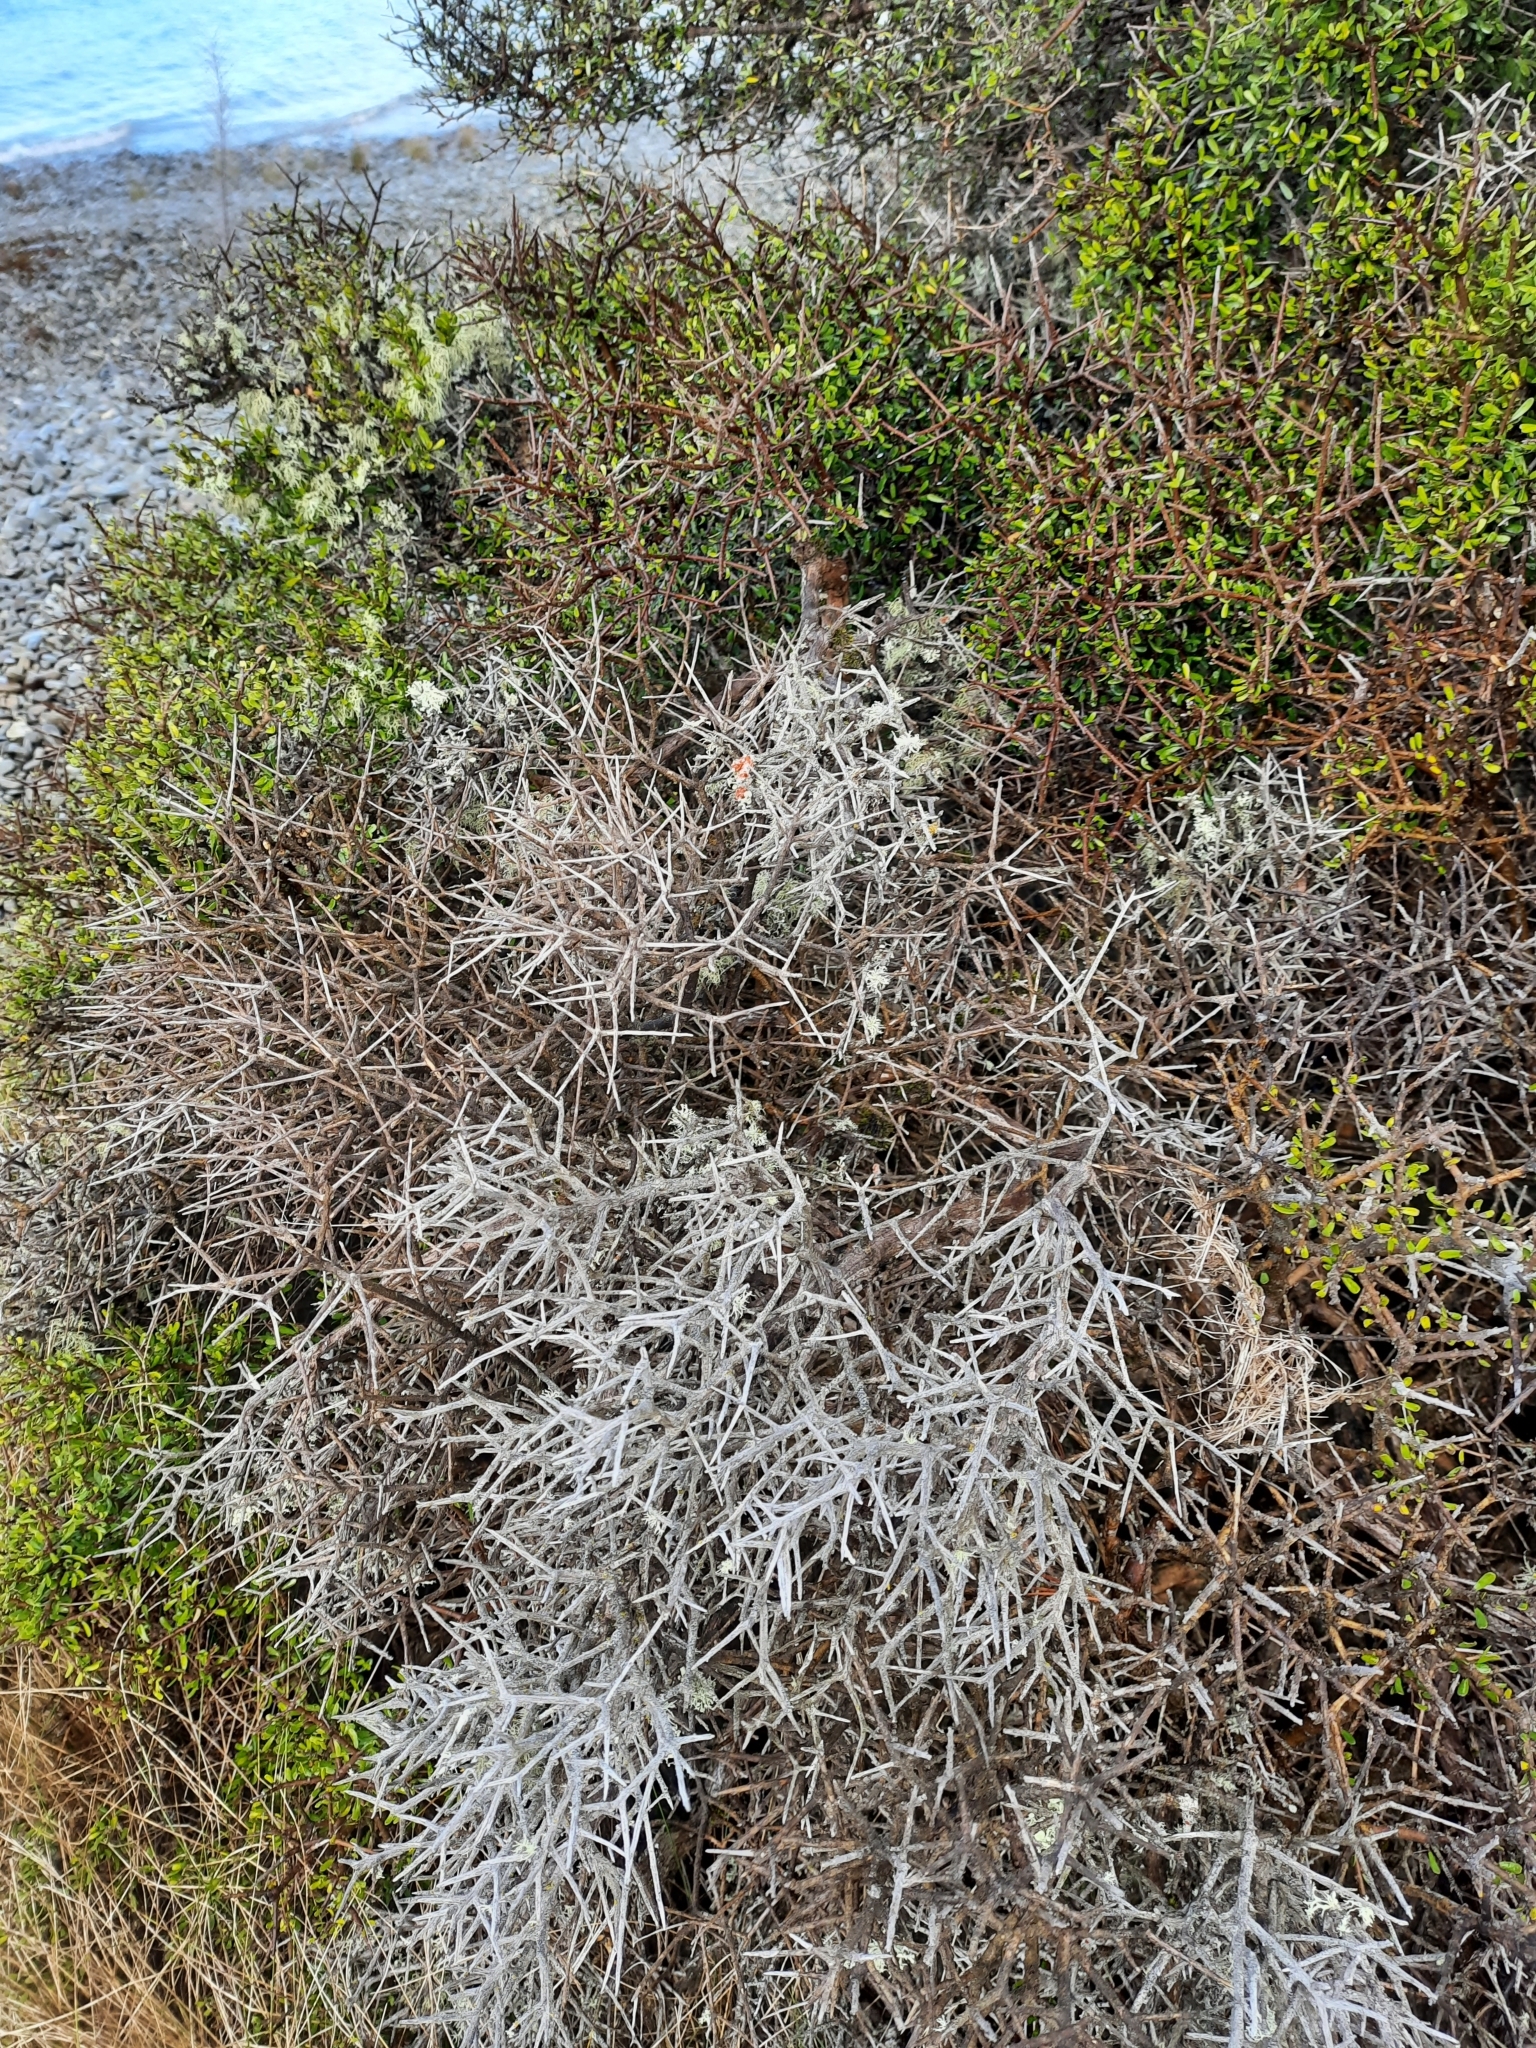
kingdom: Plantae
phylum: Tracheophyta
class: Magnoliopsida
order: Malpighiales
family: Violaceae
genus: Melicytus
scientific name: Melicytus alpinus
